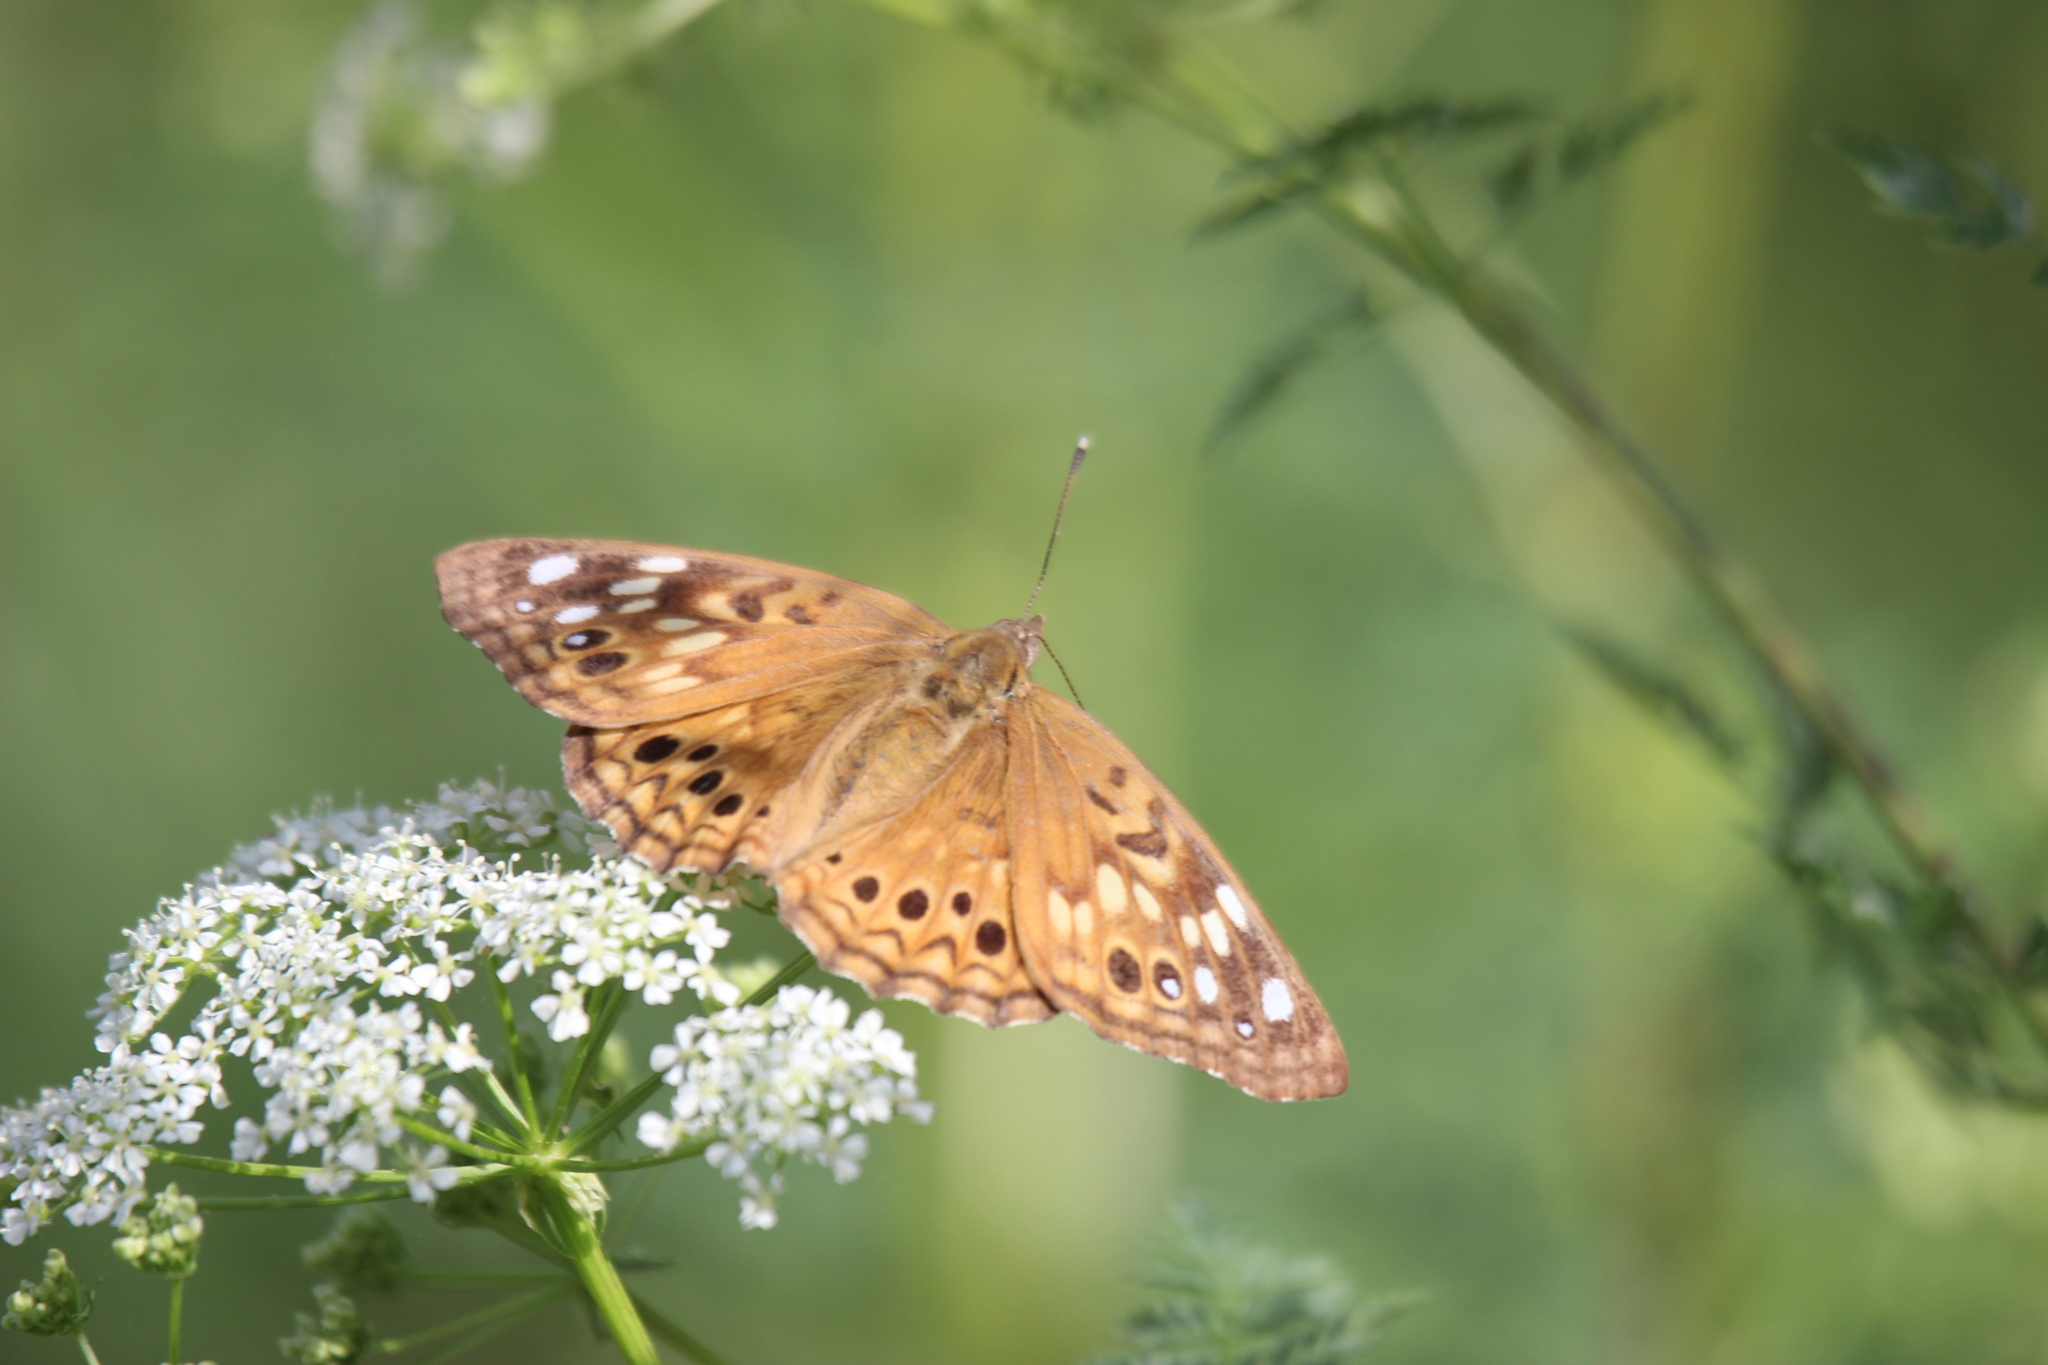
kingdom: Animalia
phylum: Arthropoda
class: Insecta
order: Lepidoptera
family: Nymphalidae
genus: Asterocampa
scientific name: Asterocampa celtis
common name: Hackberry emperor
